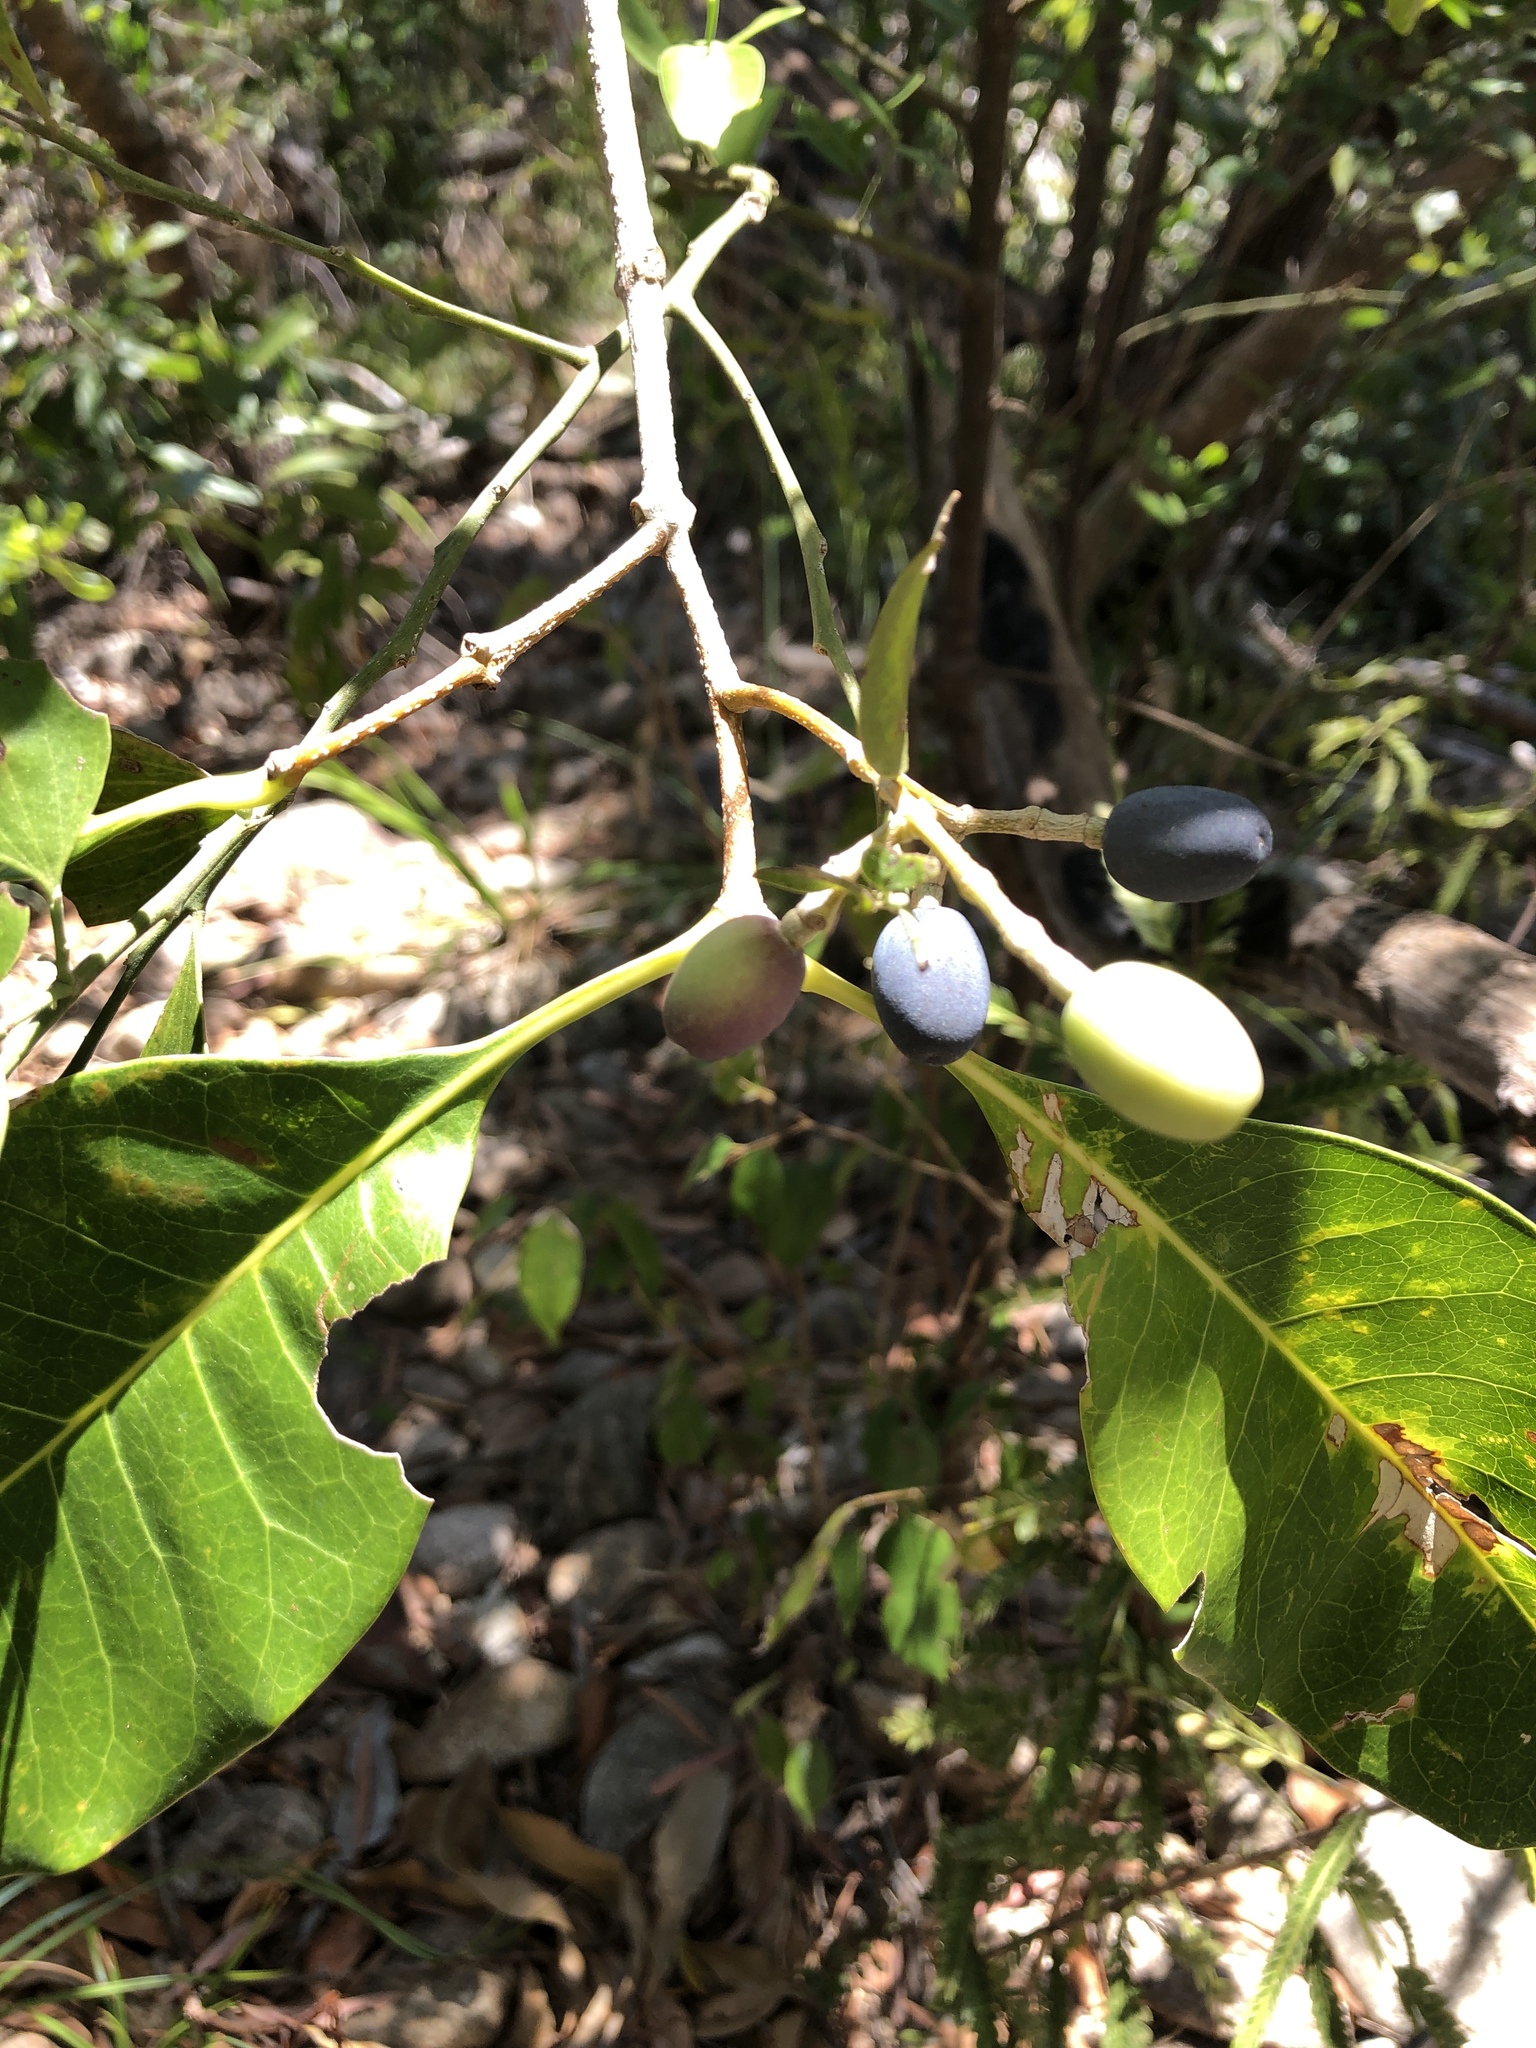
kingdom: Plantae
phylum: Tracheophyta
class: Magnoliopsida
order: Lamiales
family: Oleaceae
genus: Chionanthus
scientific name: Chionanthus ramiflorus
